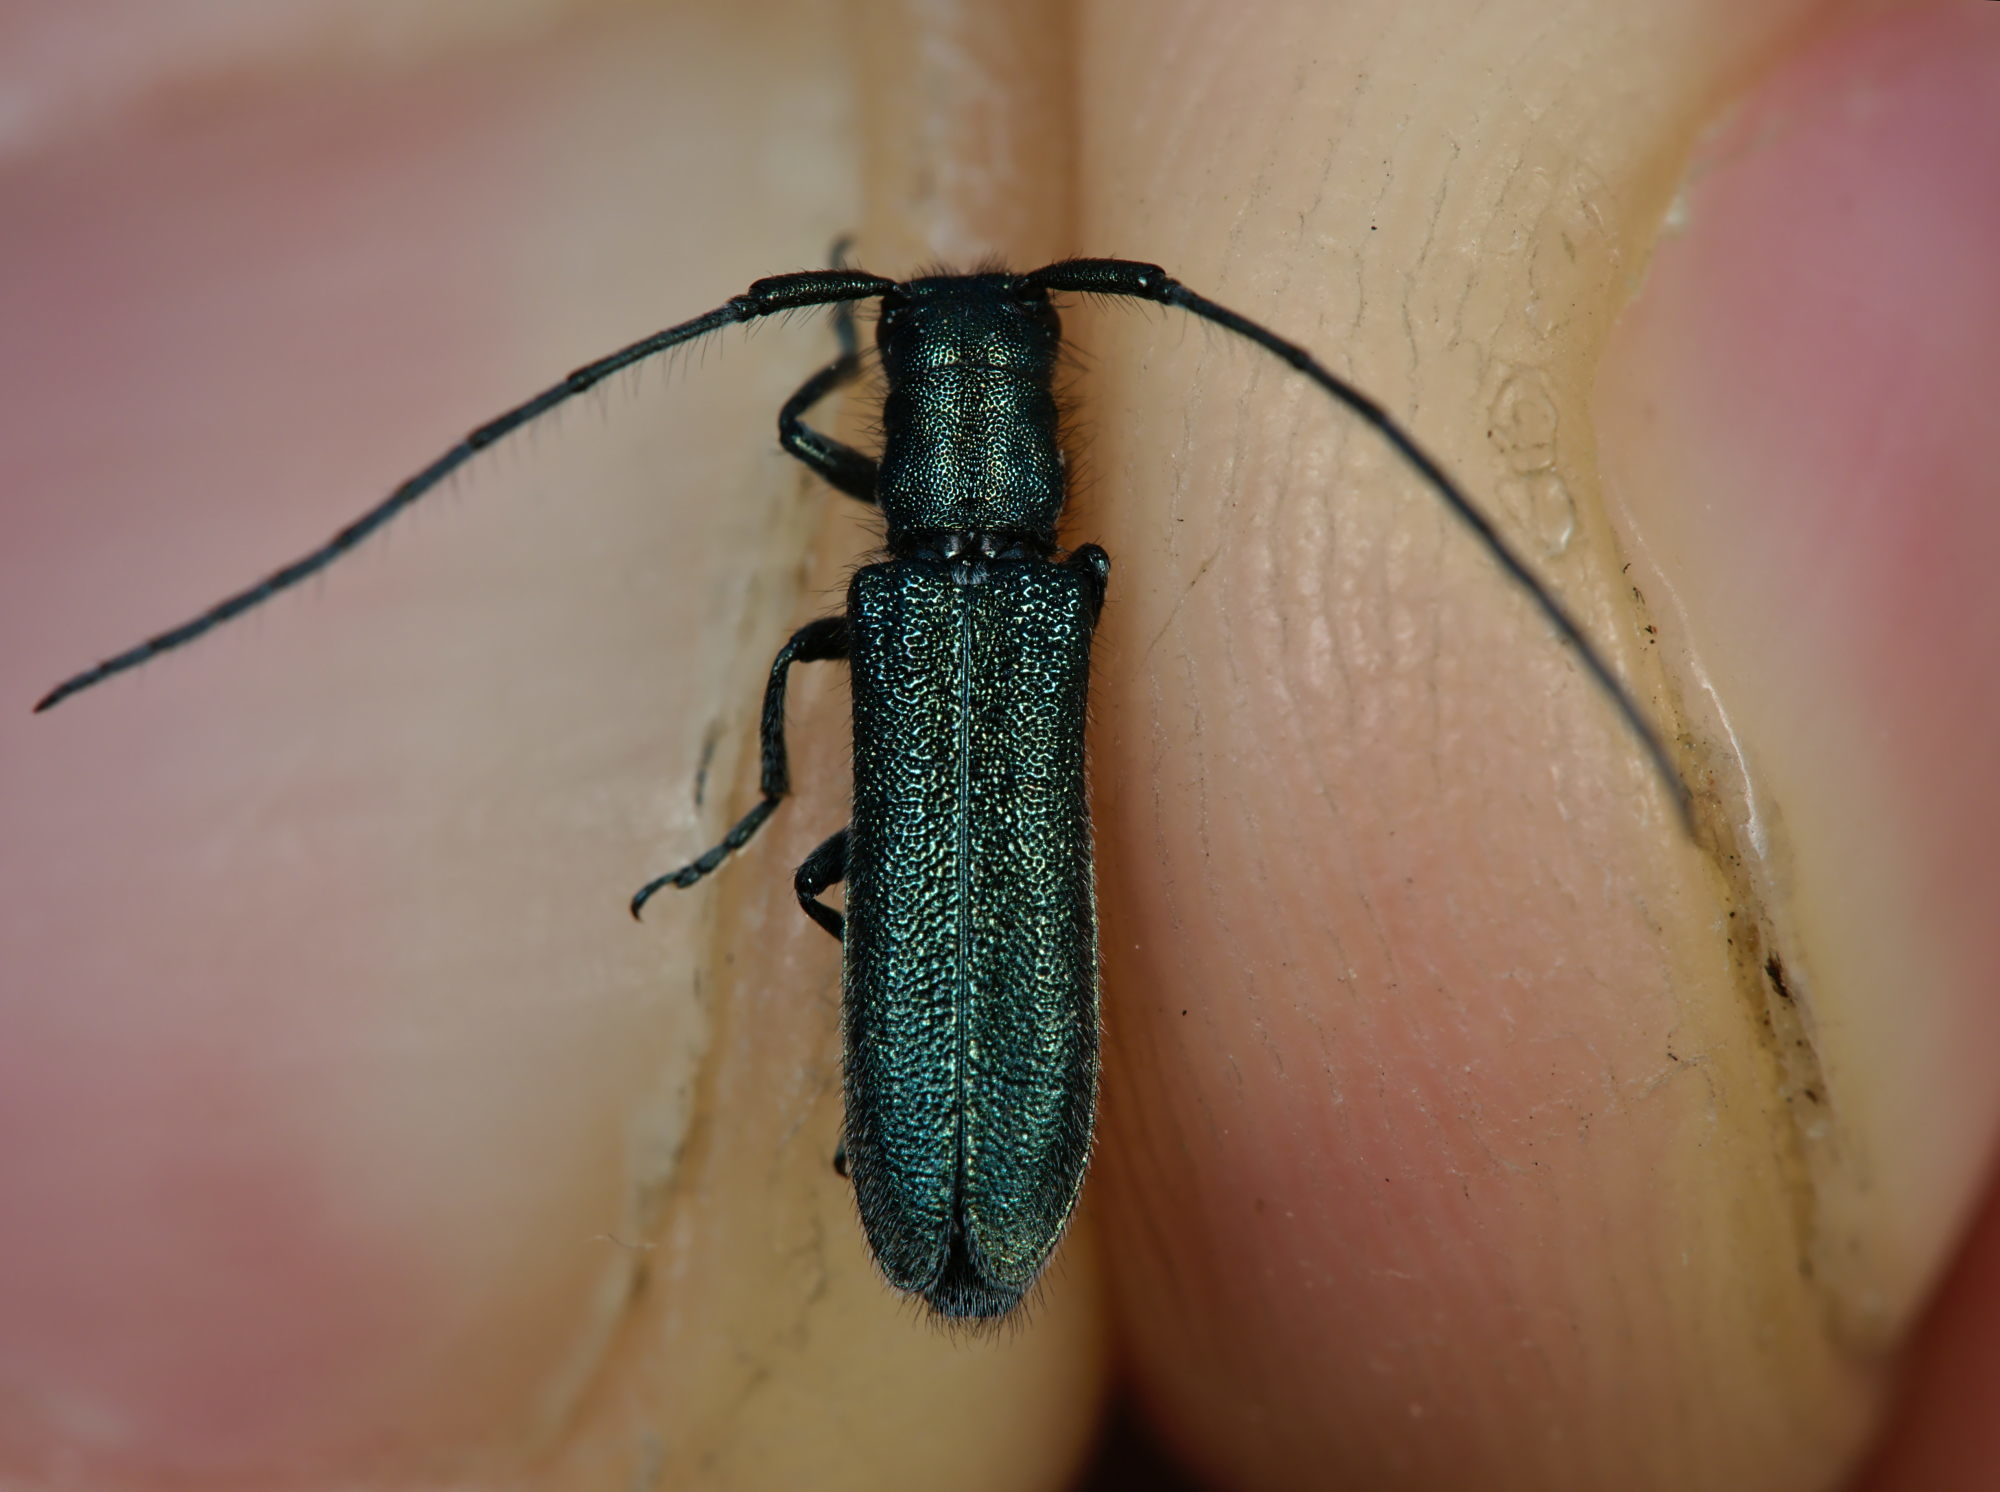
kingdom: Animalia
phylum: Arthropoda
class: Insecta
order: Coleoptera
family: Cerambycidae
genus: Agapanthia
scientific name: Agapanthia intermedia
